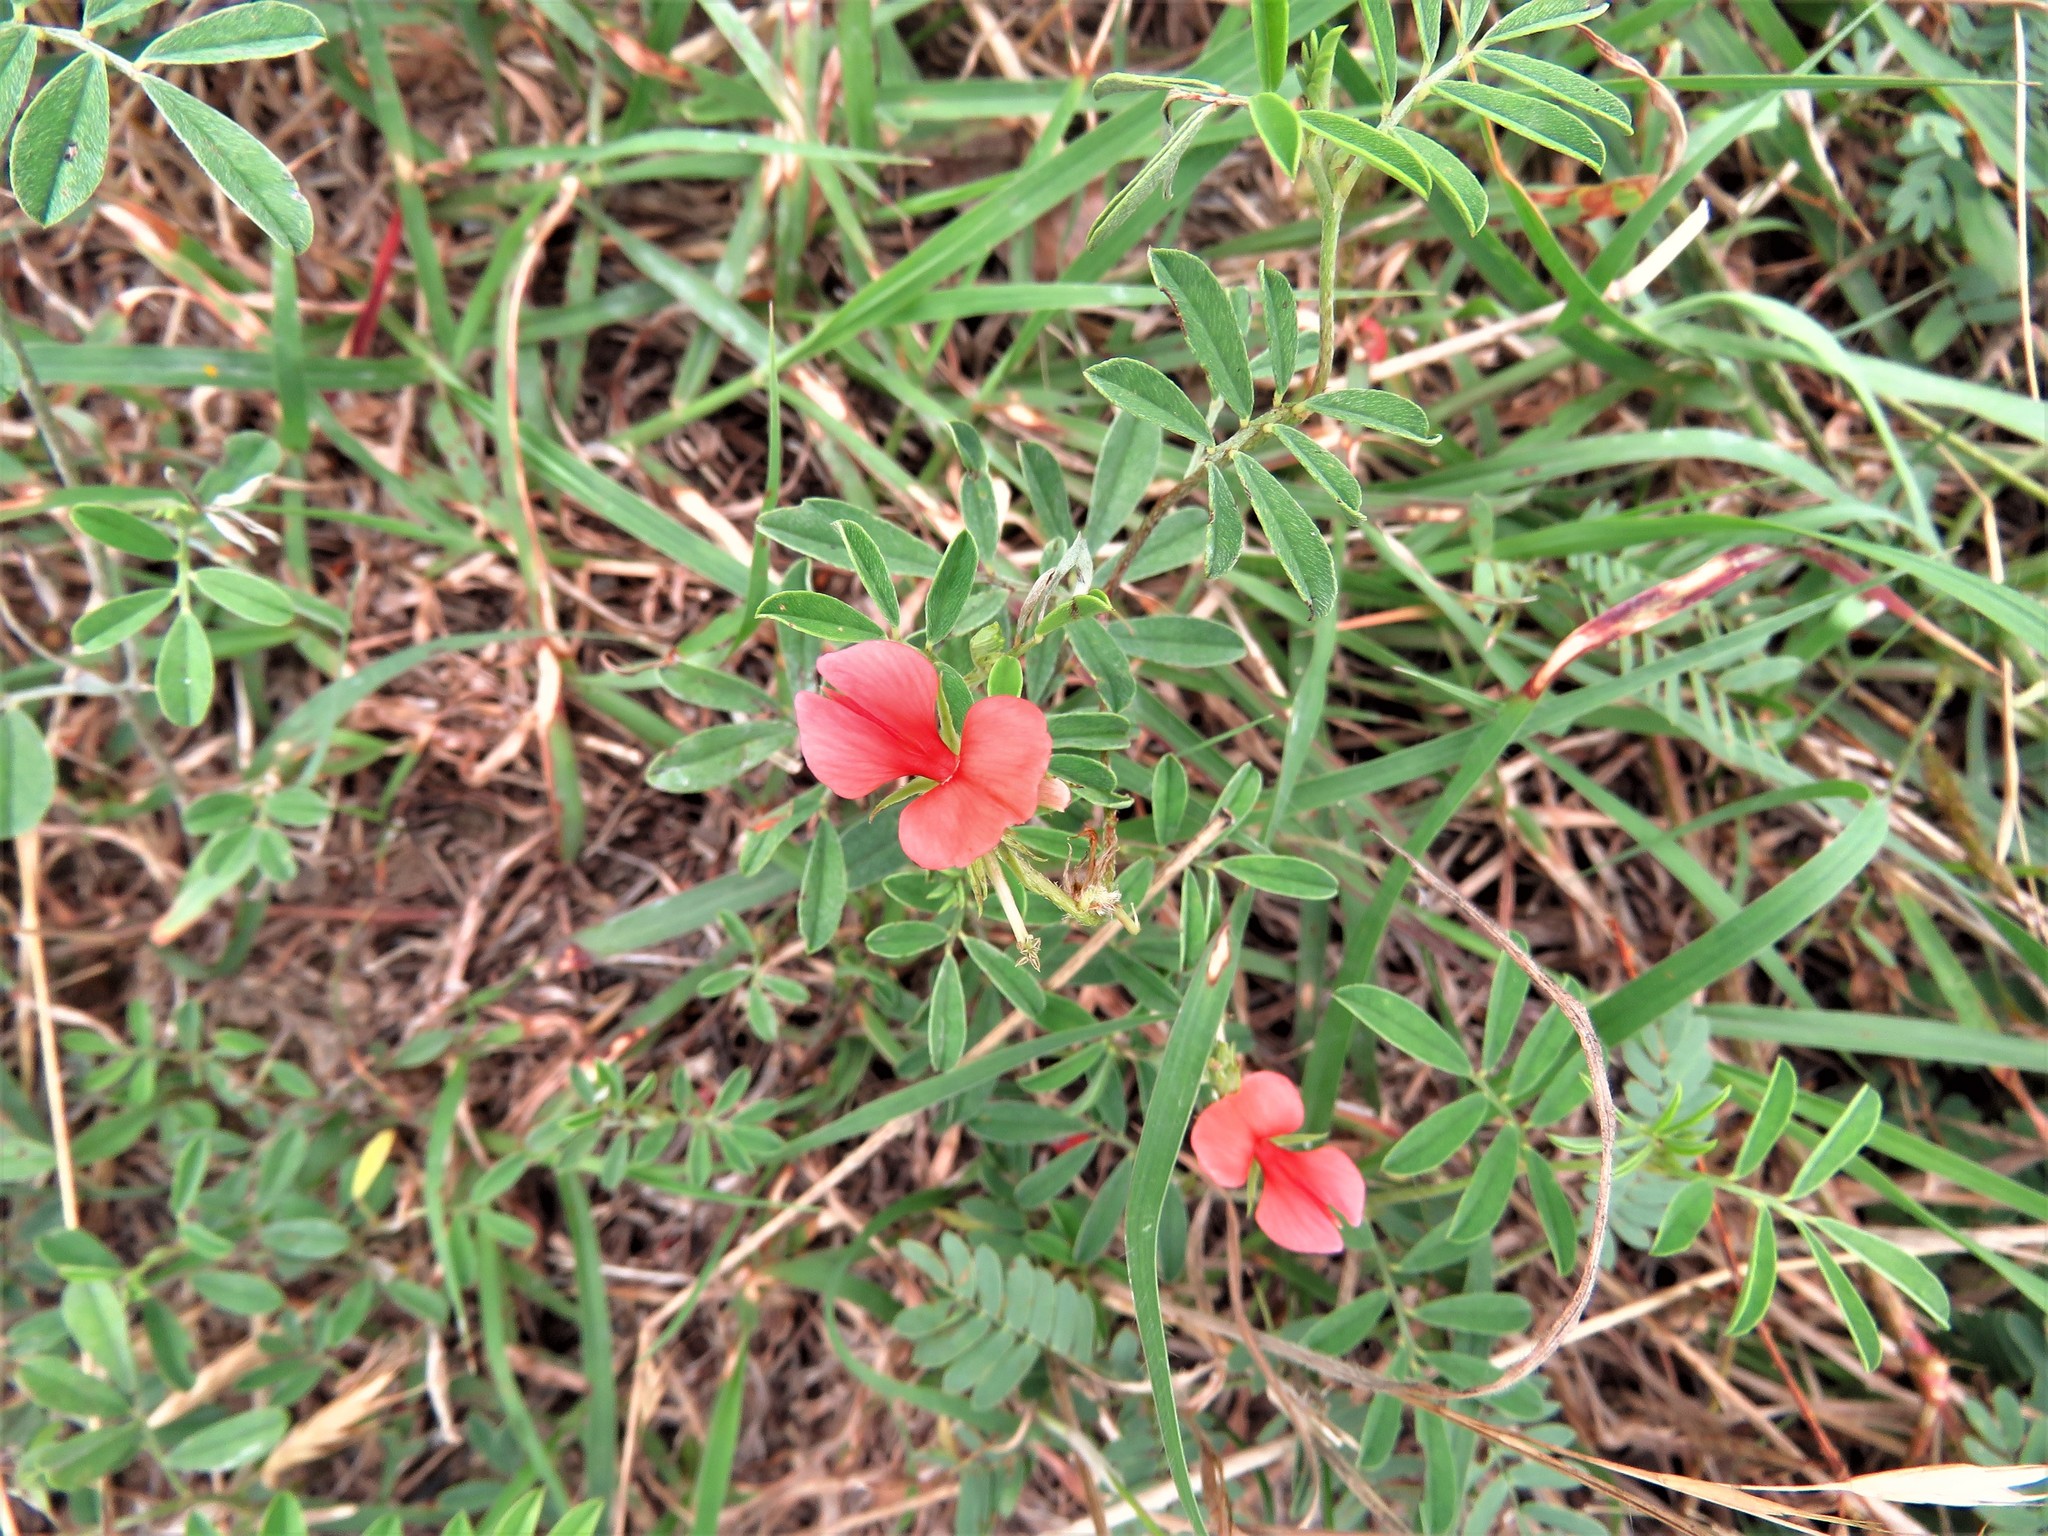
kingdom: Plantae
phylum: Tracheophyta
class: Magnoliopsida
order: Fabales
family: Fabaceae
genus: Indigofera
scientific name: Indigofera miniata
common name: Coast indigo
